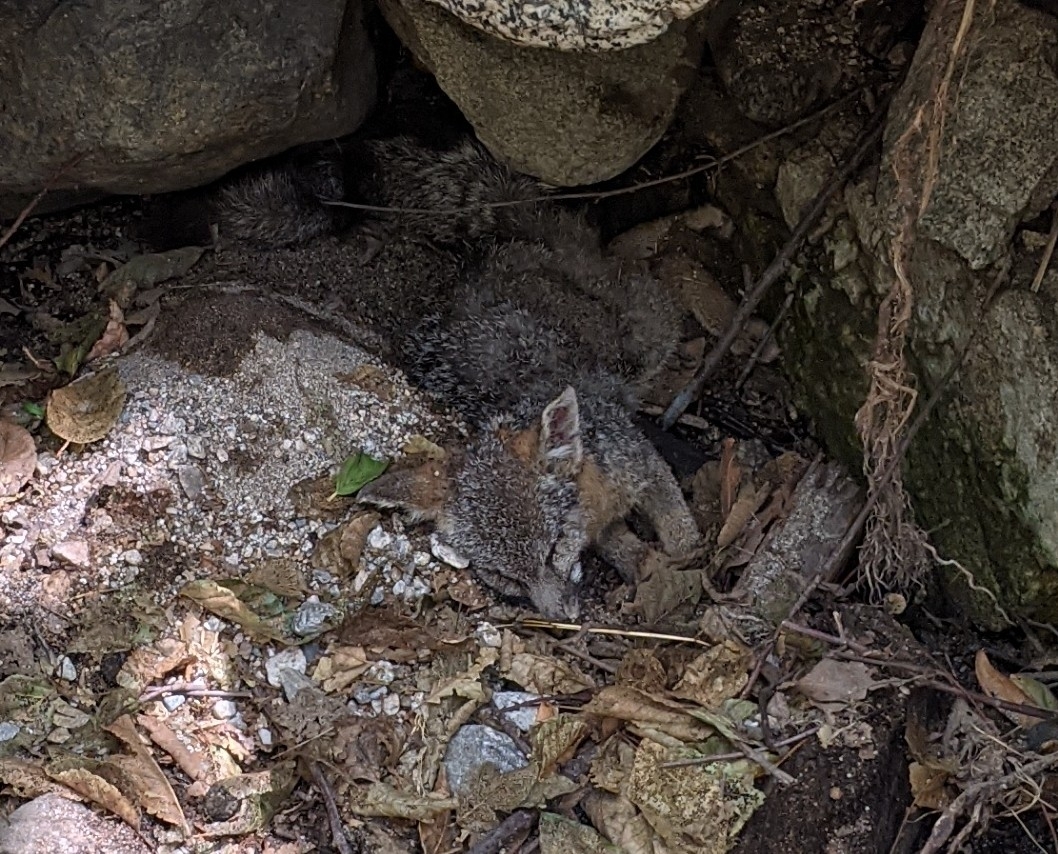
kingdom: Animalia
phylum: Chordata
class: Mammalia
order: Carnivora
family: Canidae
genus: Urocyon
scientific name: Urocyon cinereoargenteus
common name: Gray fox
